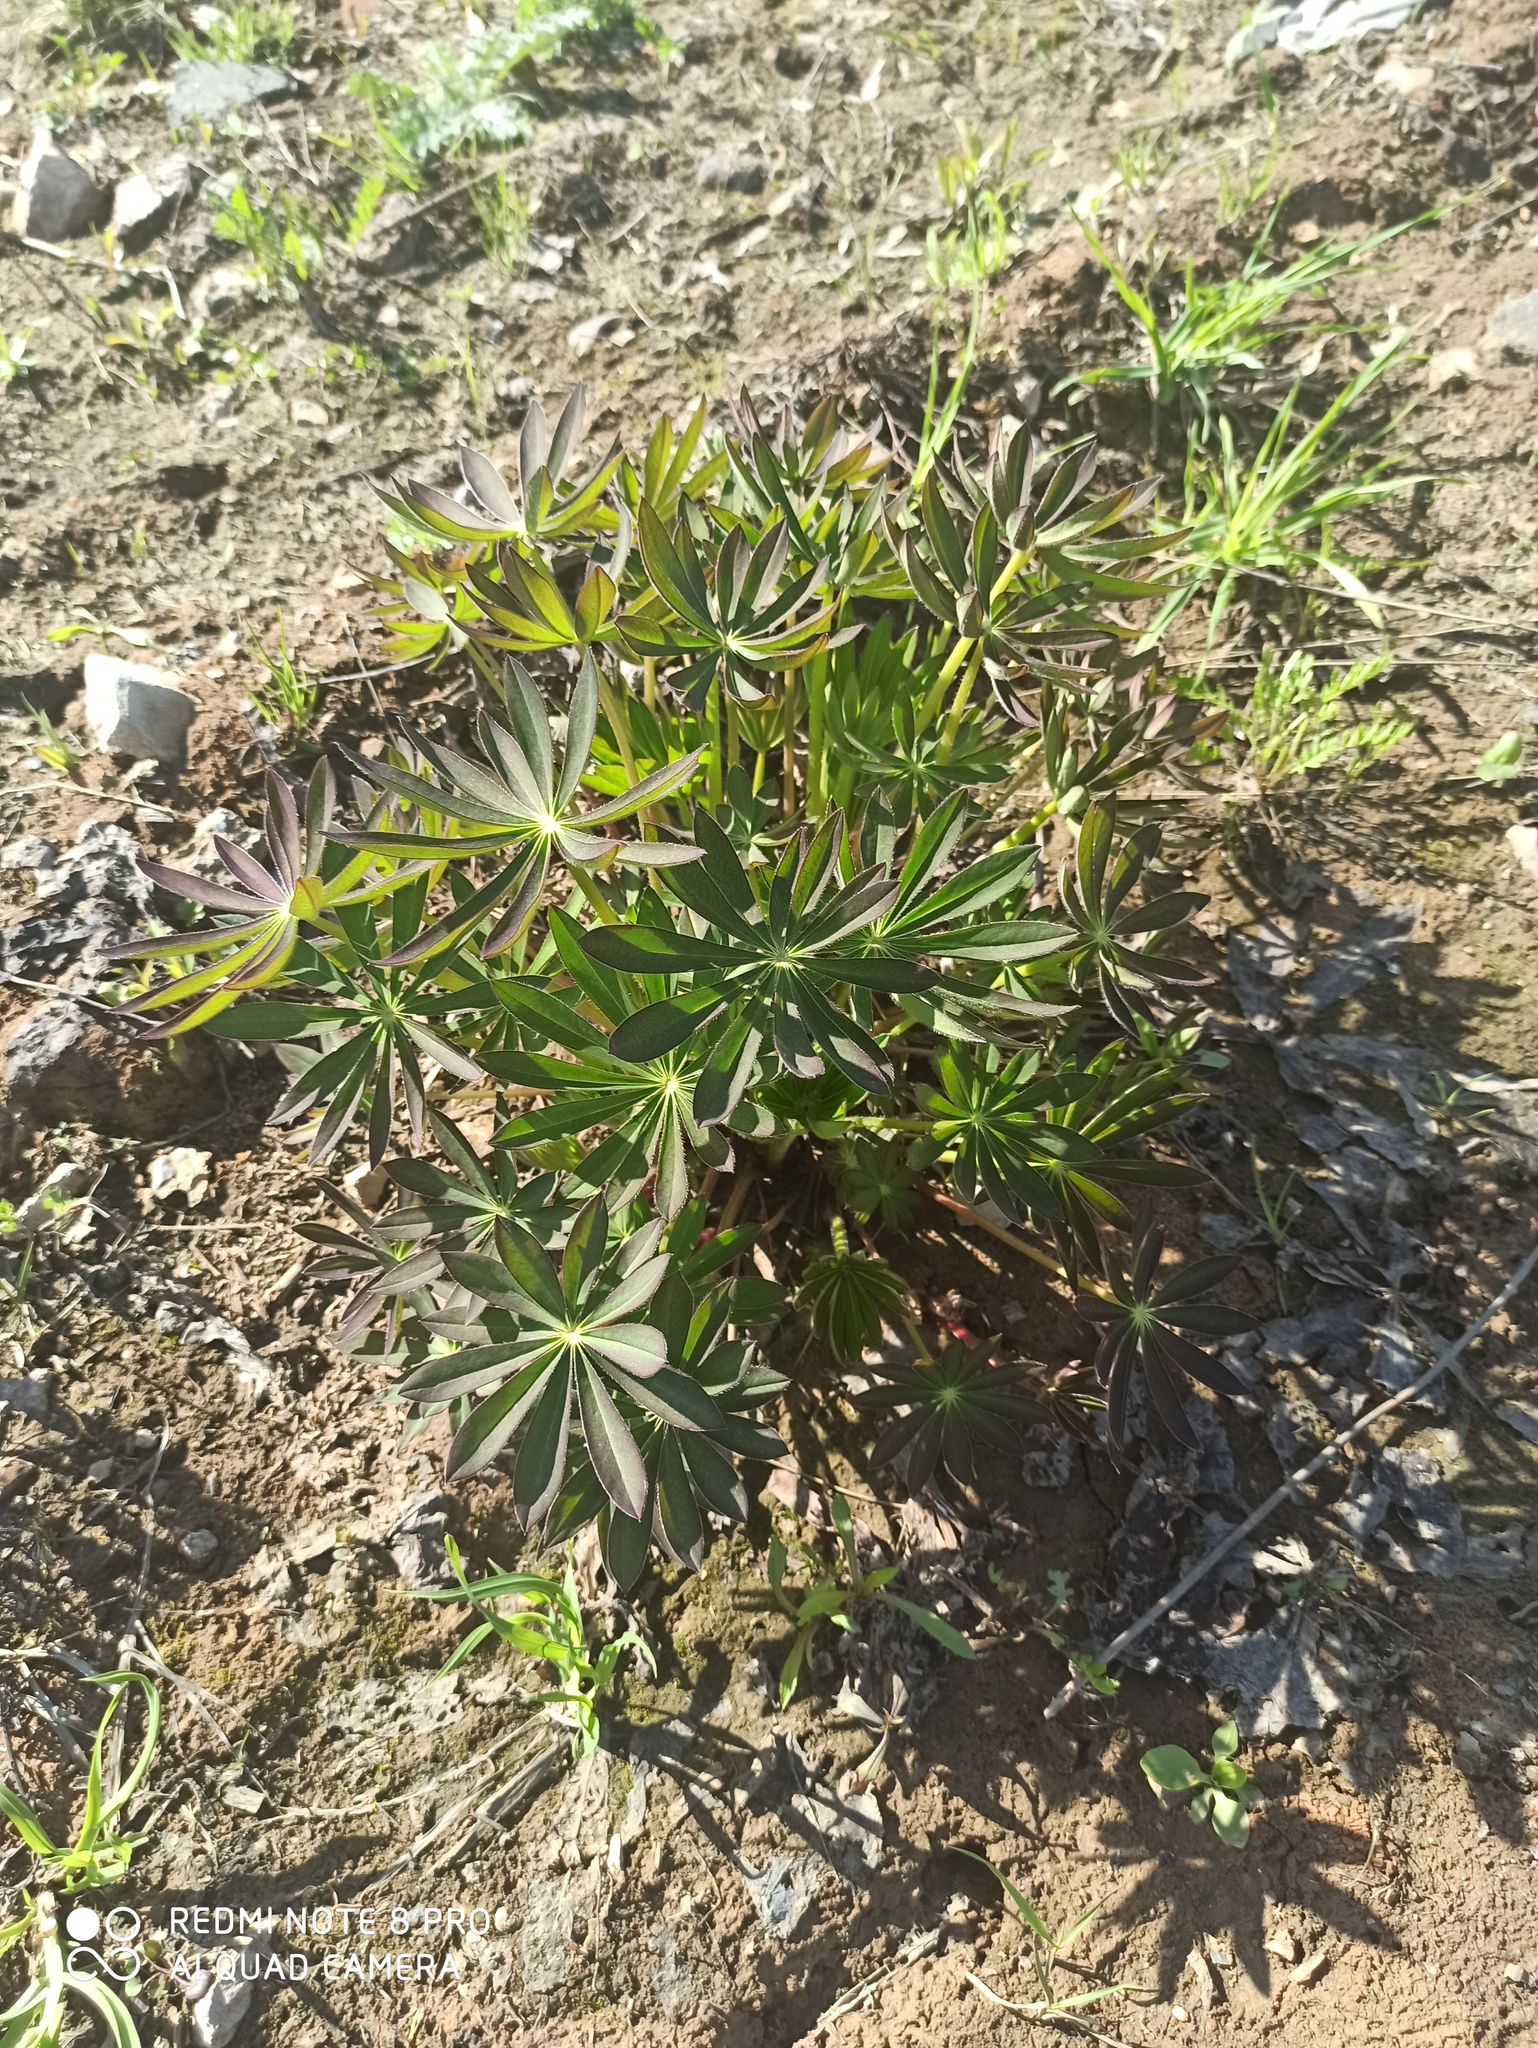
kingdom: Plantae
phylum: Tracheophyta
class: Magnoliopsida
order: Fabales
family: Fabaceae
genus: Lupinus
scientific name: Lupinus polyphyllus
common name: Garden lupin
